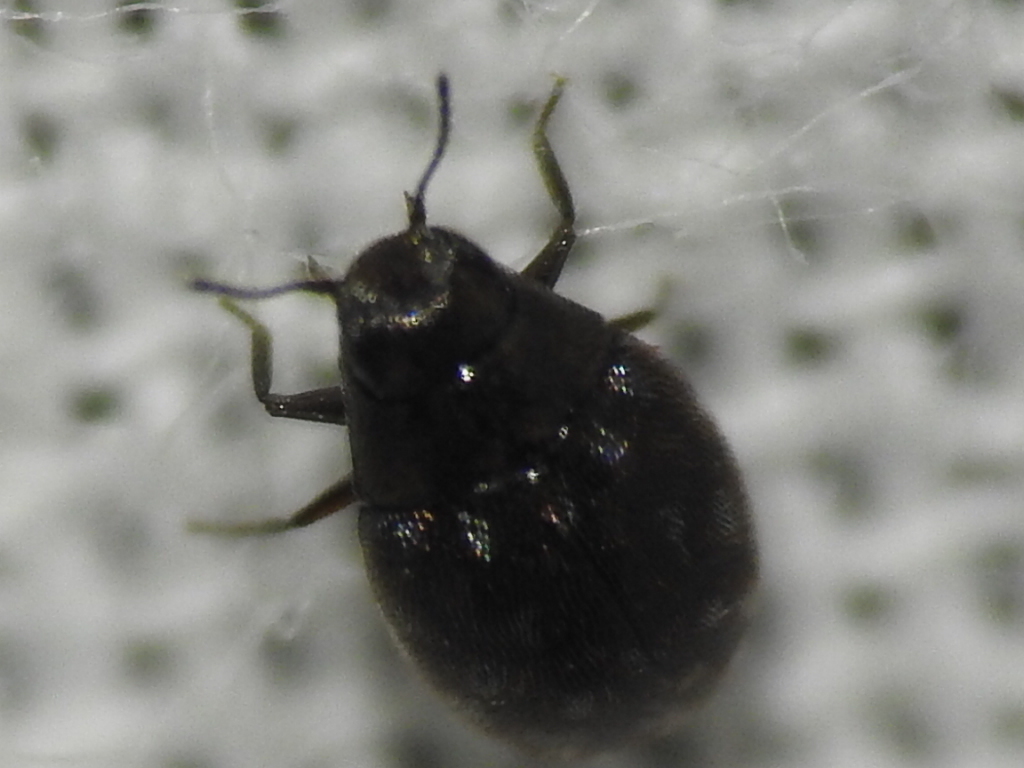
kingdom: Animalia
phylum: Arthropoda
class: Insecta
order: Coleoptera
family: Limnichidae
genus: Eulimnichus
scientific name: Eulimnichus ater
